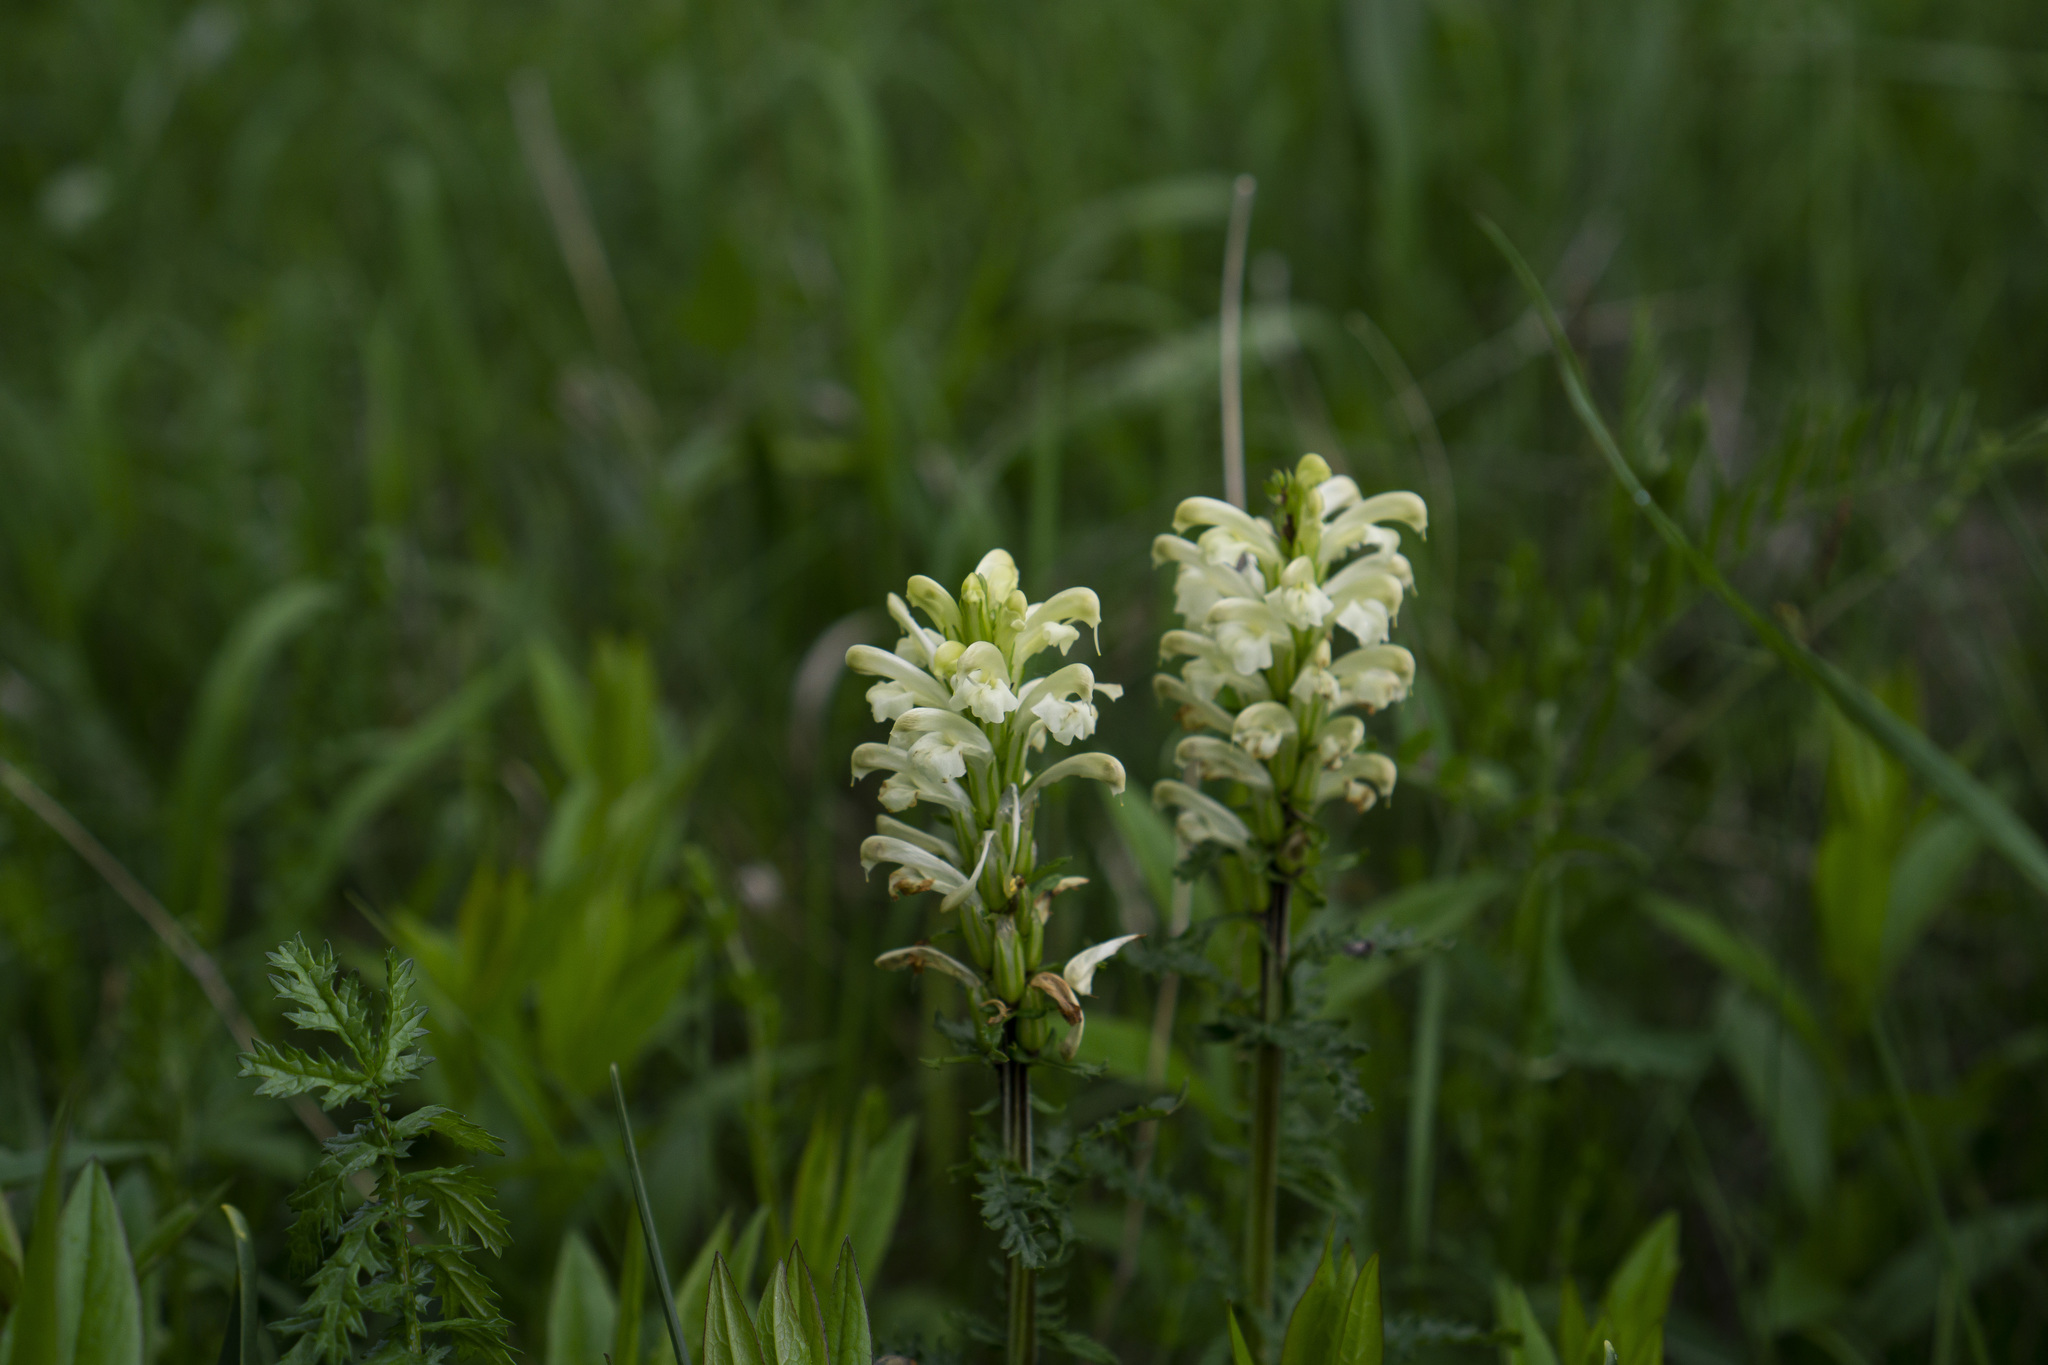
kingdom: Plantae
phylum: Tracheophyta
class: Magnoliopsida
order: Lamiales
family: Orobanchaceae
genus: Pedicularis
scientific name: Pedicularis comosa
